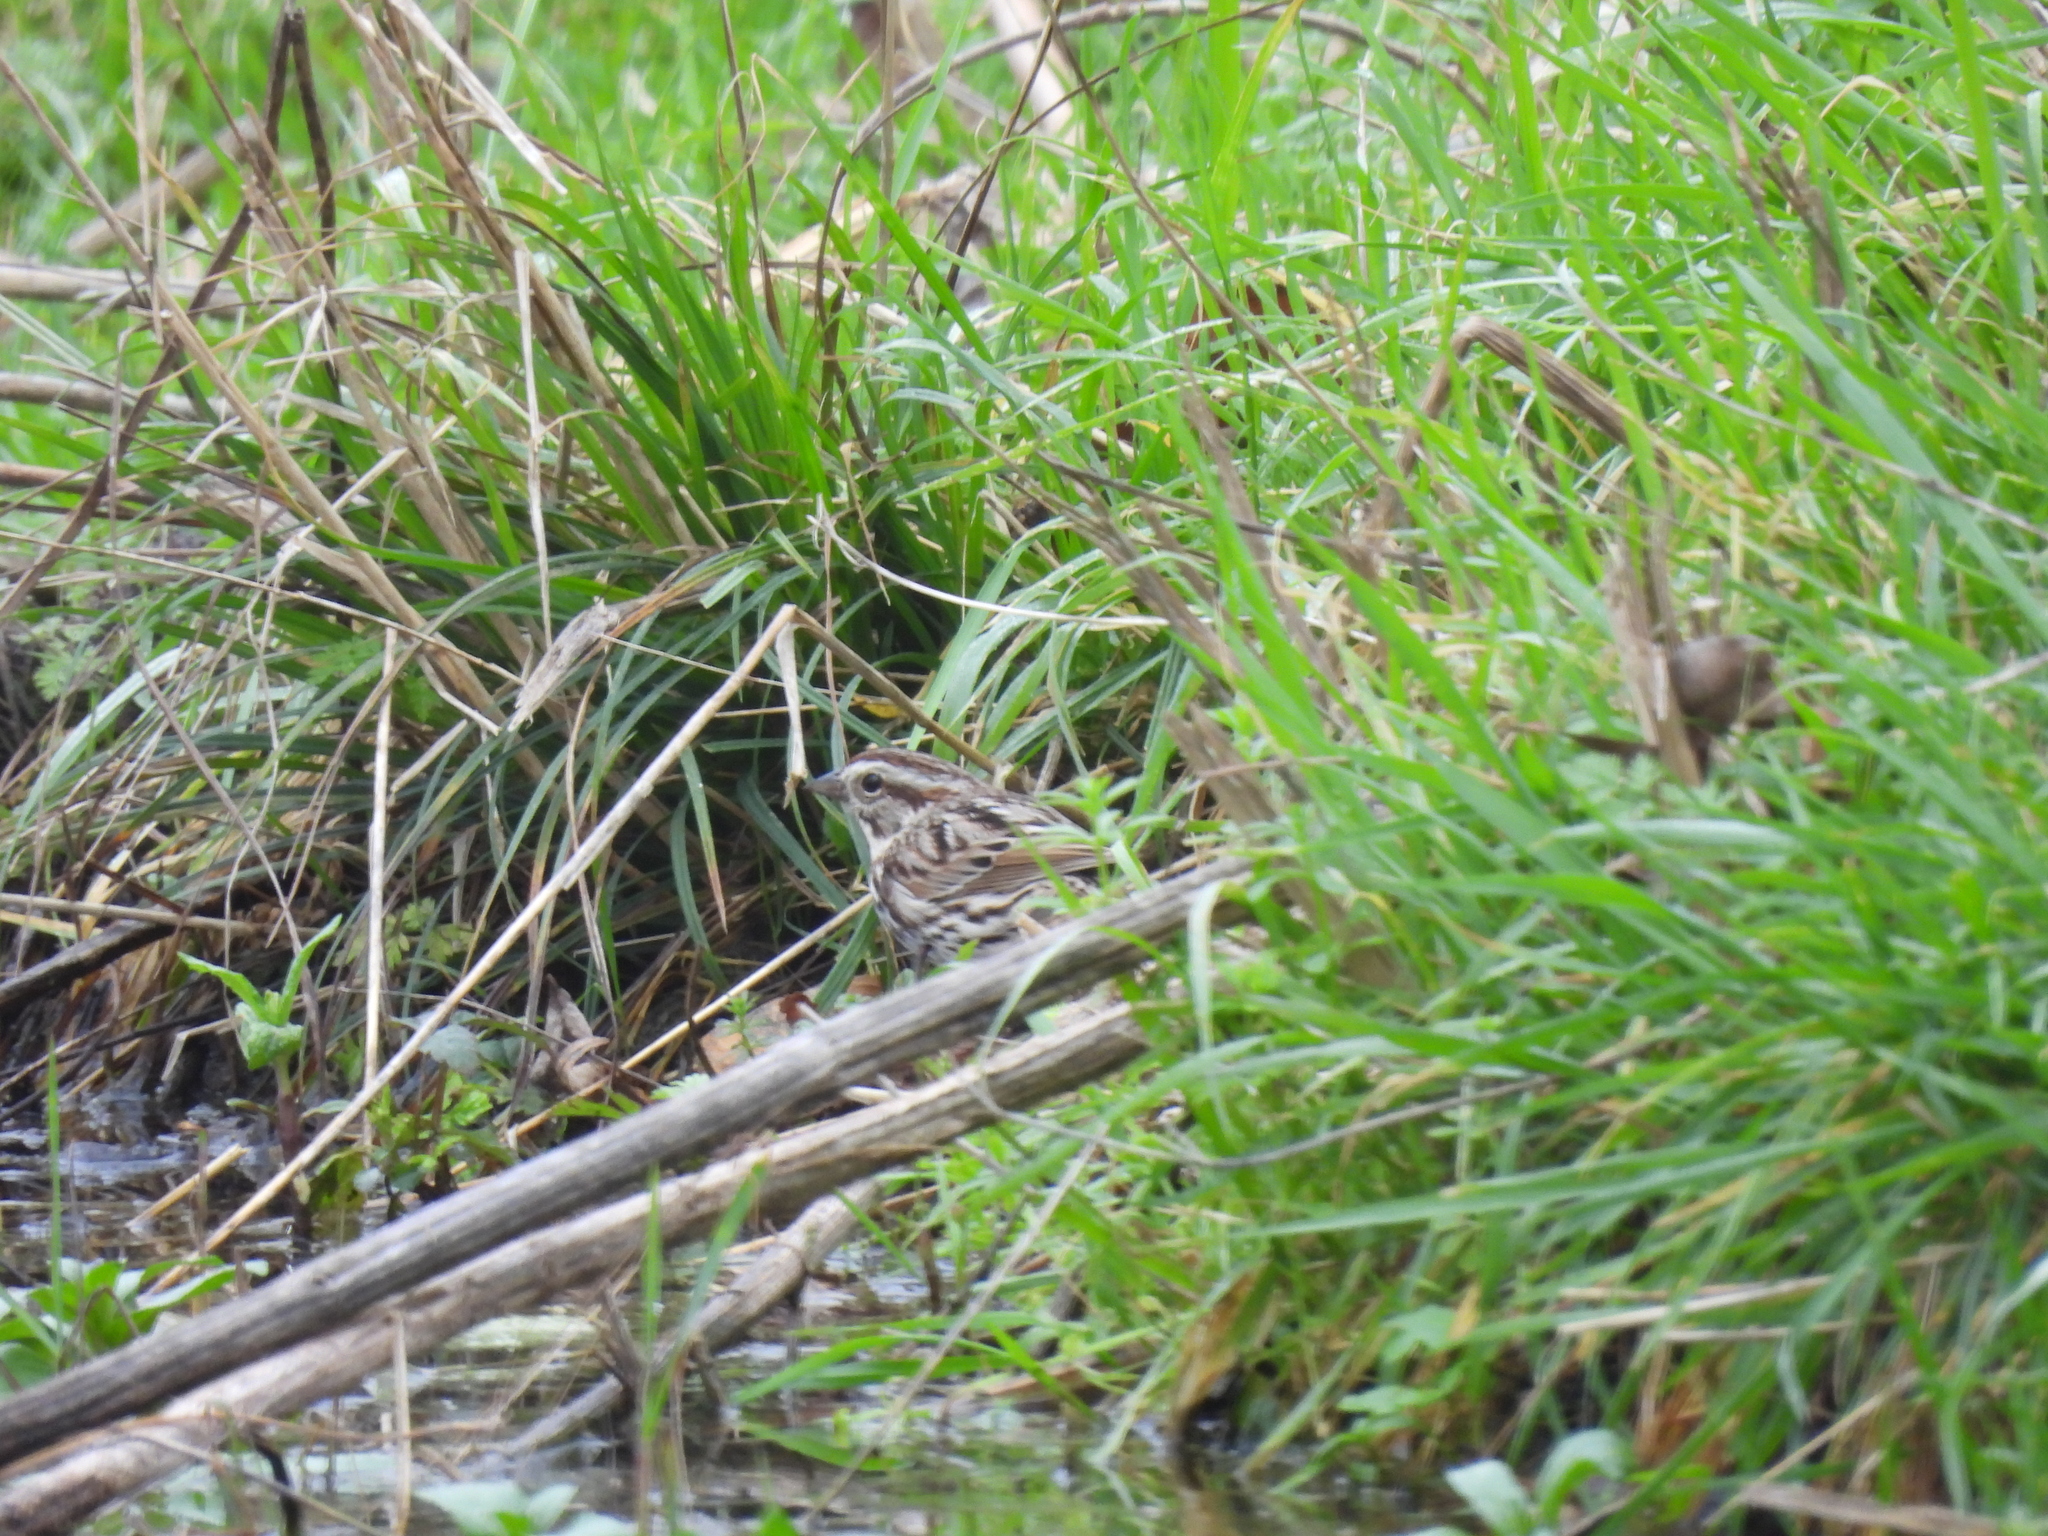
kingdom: Animalia
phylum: Chordata
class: Aves
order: Passeriformes
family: Passerellidae
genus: Melospiza
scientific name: Melospiza melodia
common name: Song sparrow
